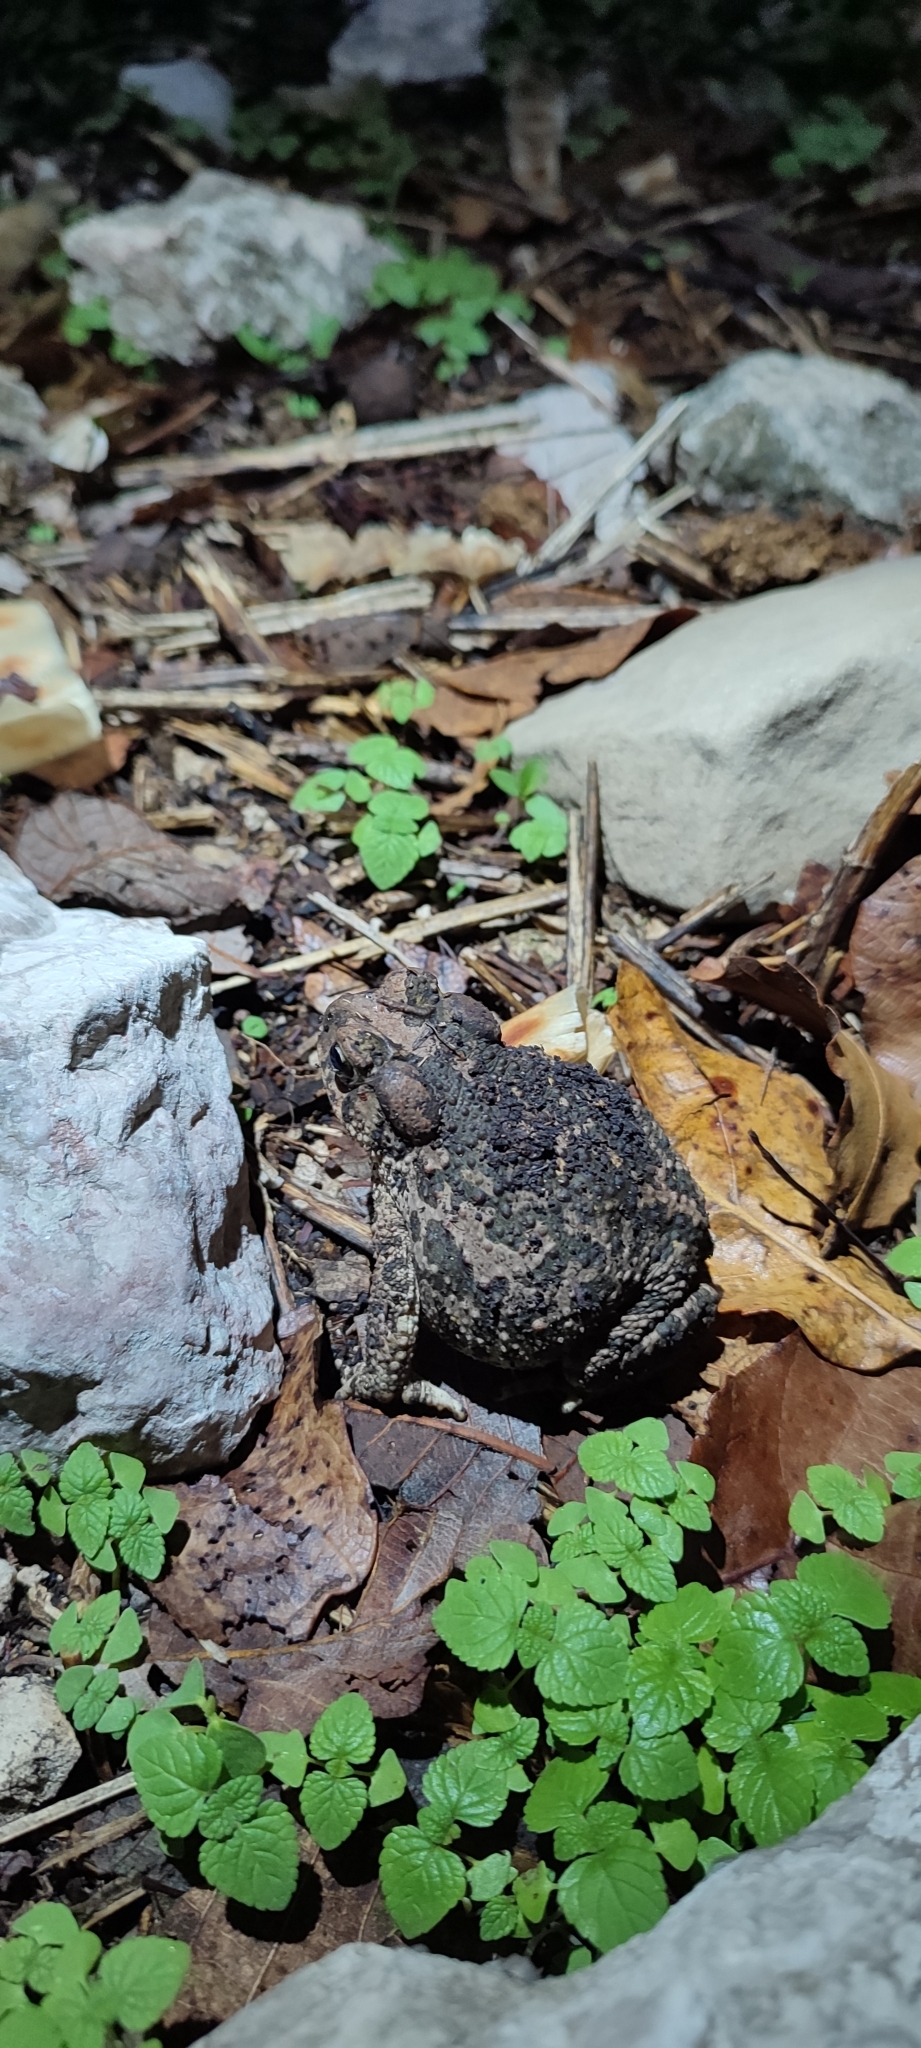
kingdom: Animalia
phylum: Chordata
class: Amphibia
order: Anura
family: Bufonidae
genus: Incilius
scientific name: Incilius occidentalis
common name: Pine toad
